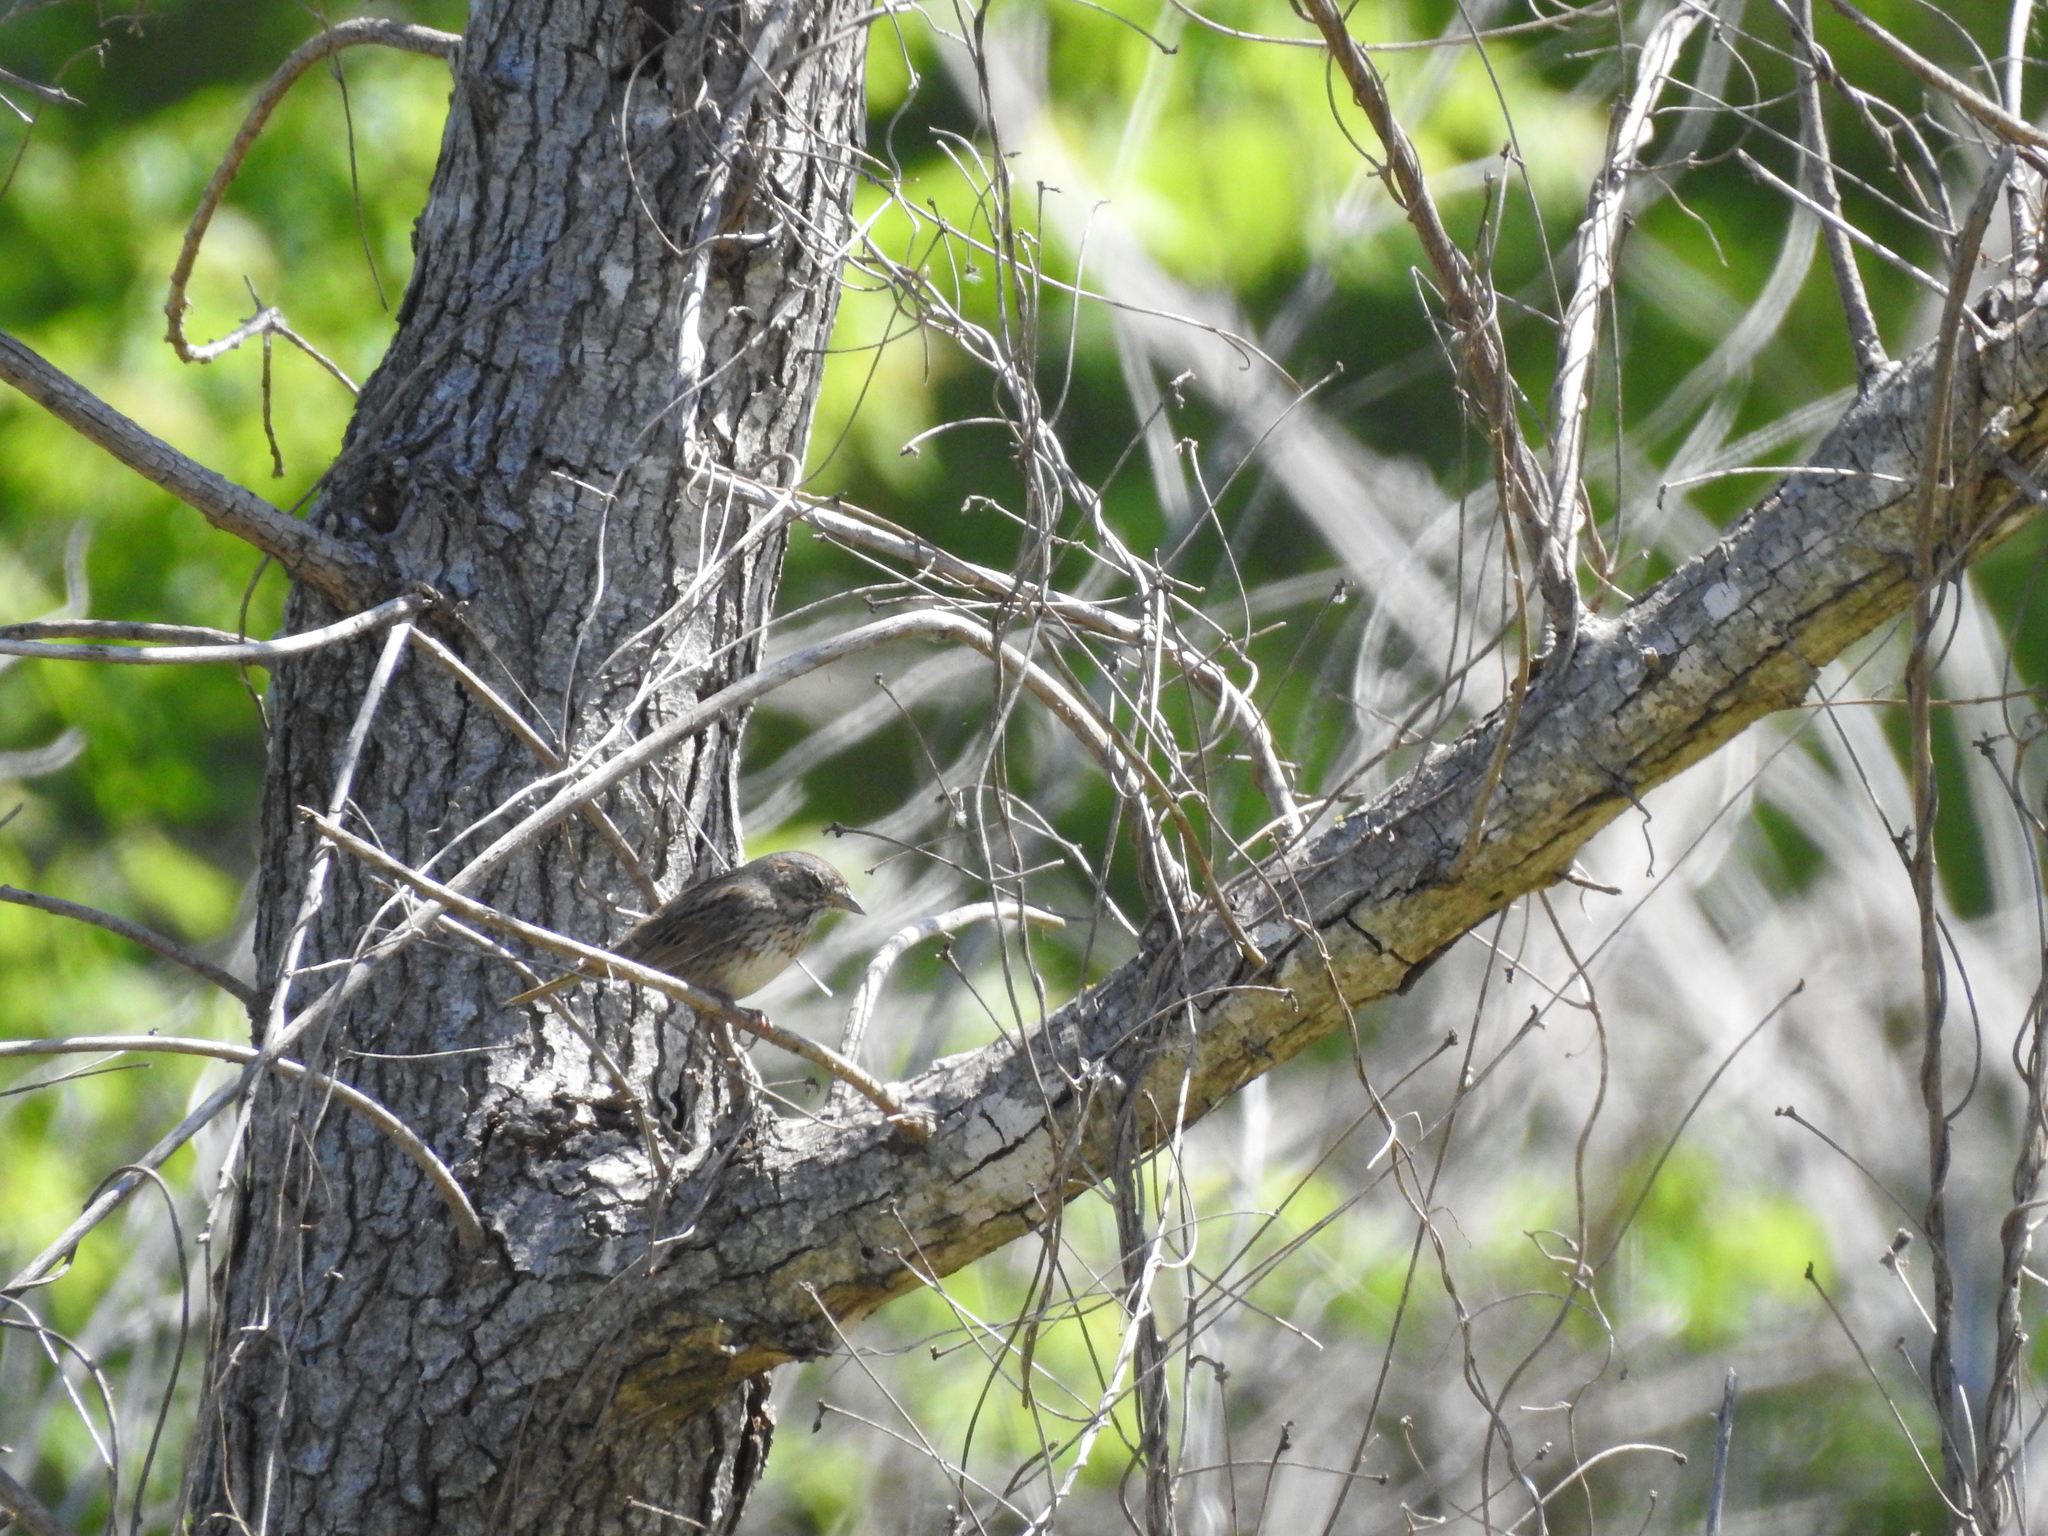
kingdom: Animalia
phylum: Chordata
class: Aves
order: Passeriformes
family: Passerellidae
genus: Melospiza
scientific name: Melospiza lincolnii
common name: Lincoln's sparrow
